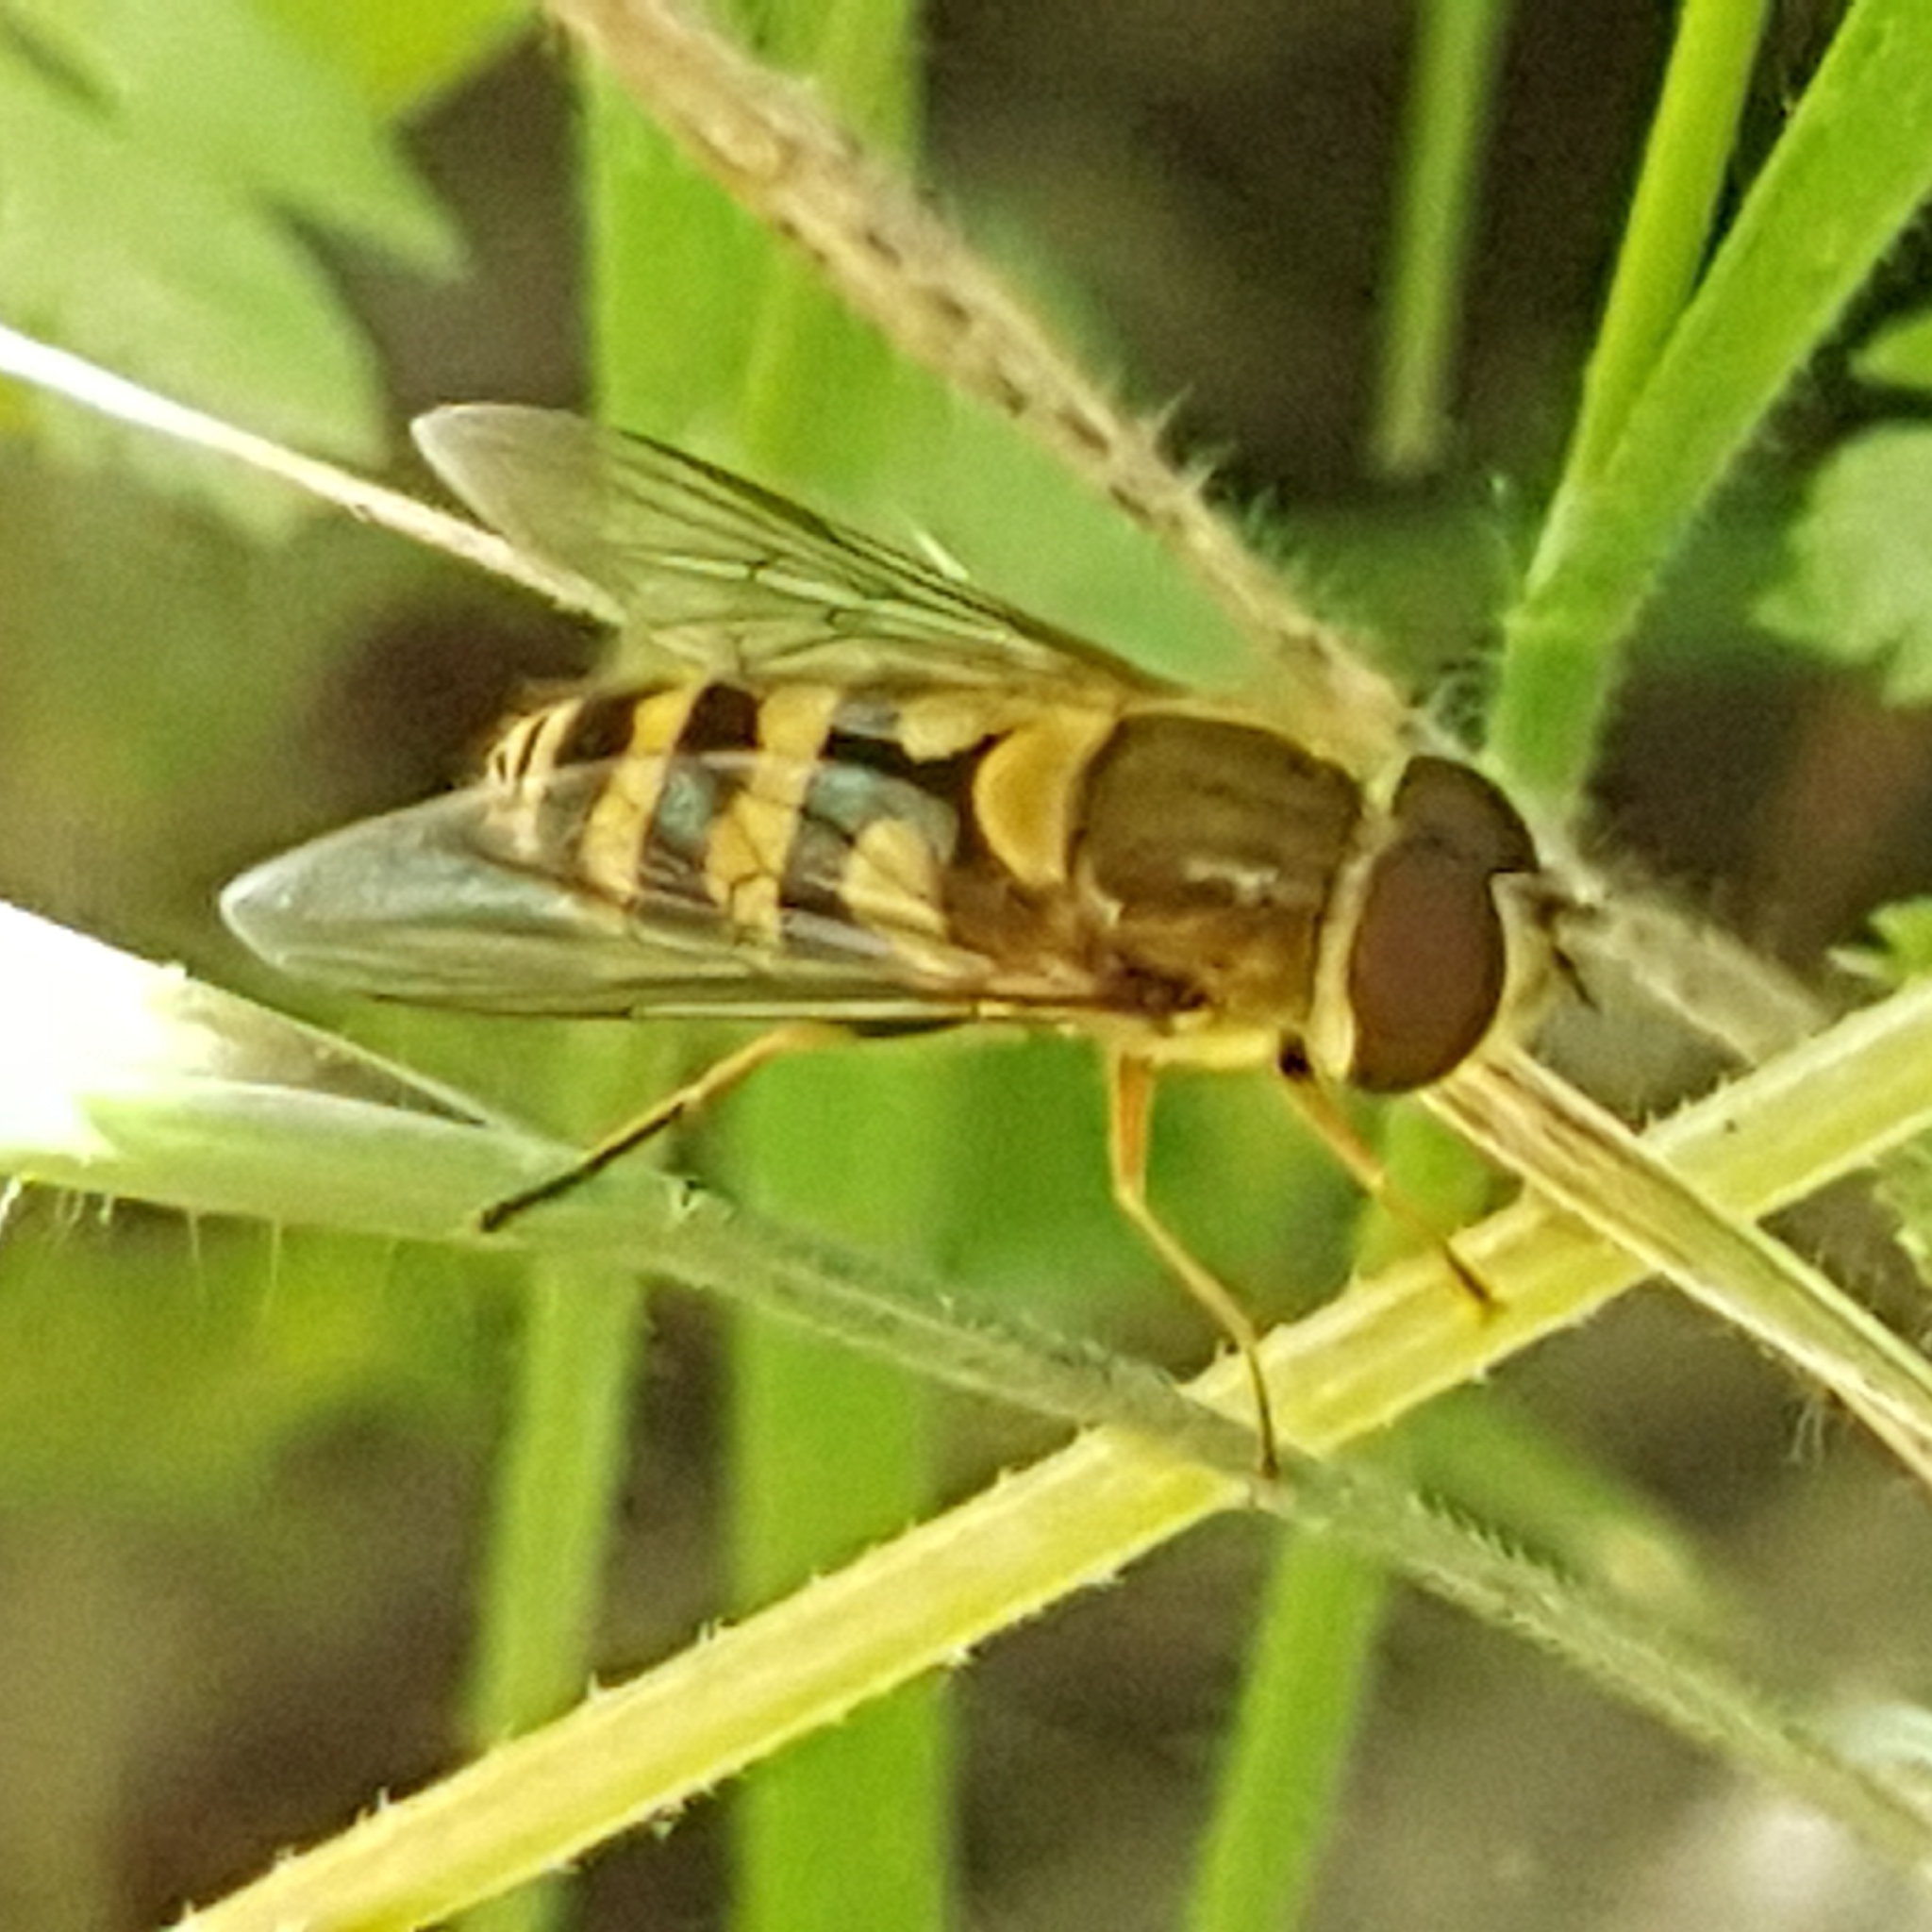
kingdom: Animalia
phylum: Arthropoda
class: Insecta
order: Diptera
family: Syrphidae
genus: Syrphus
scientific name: Syrphus
